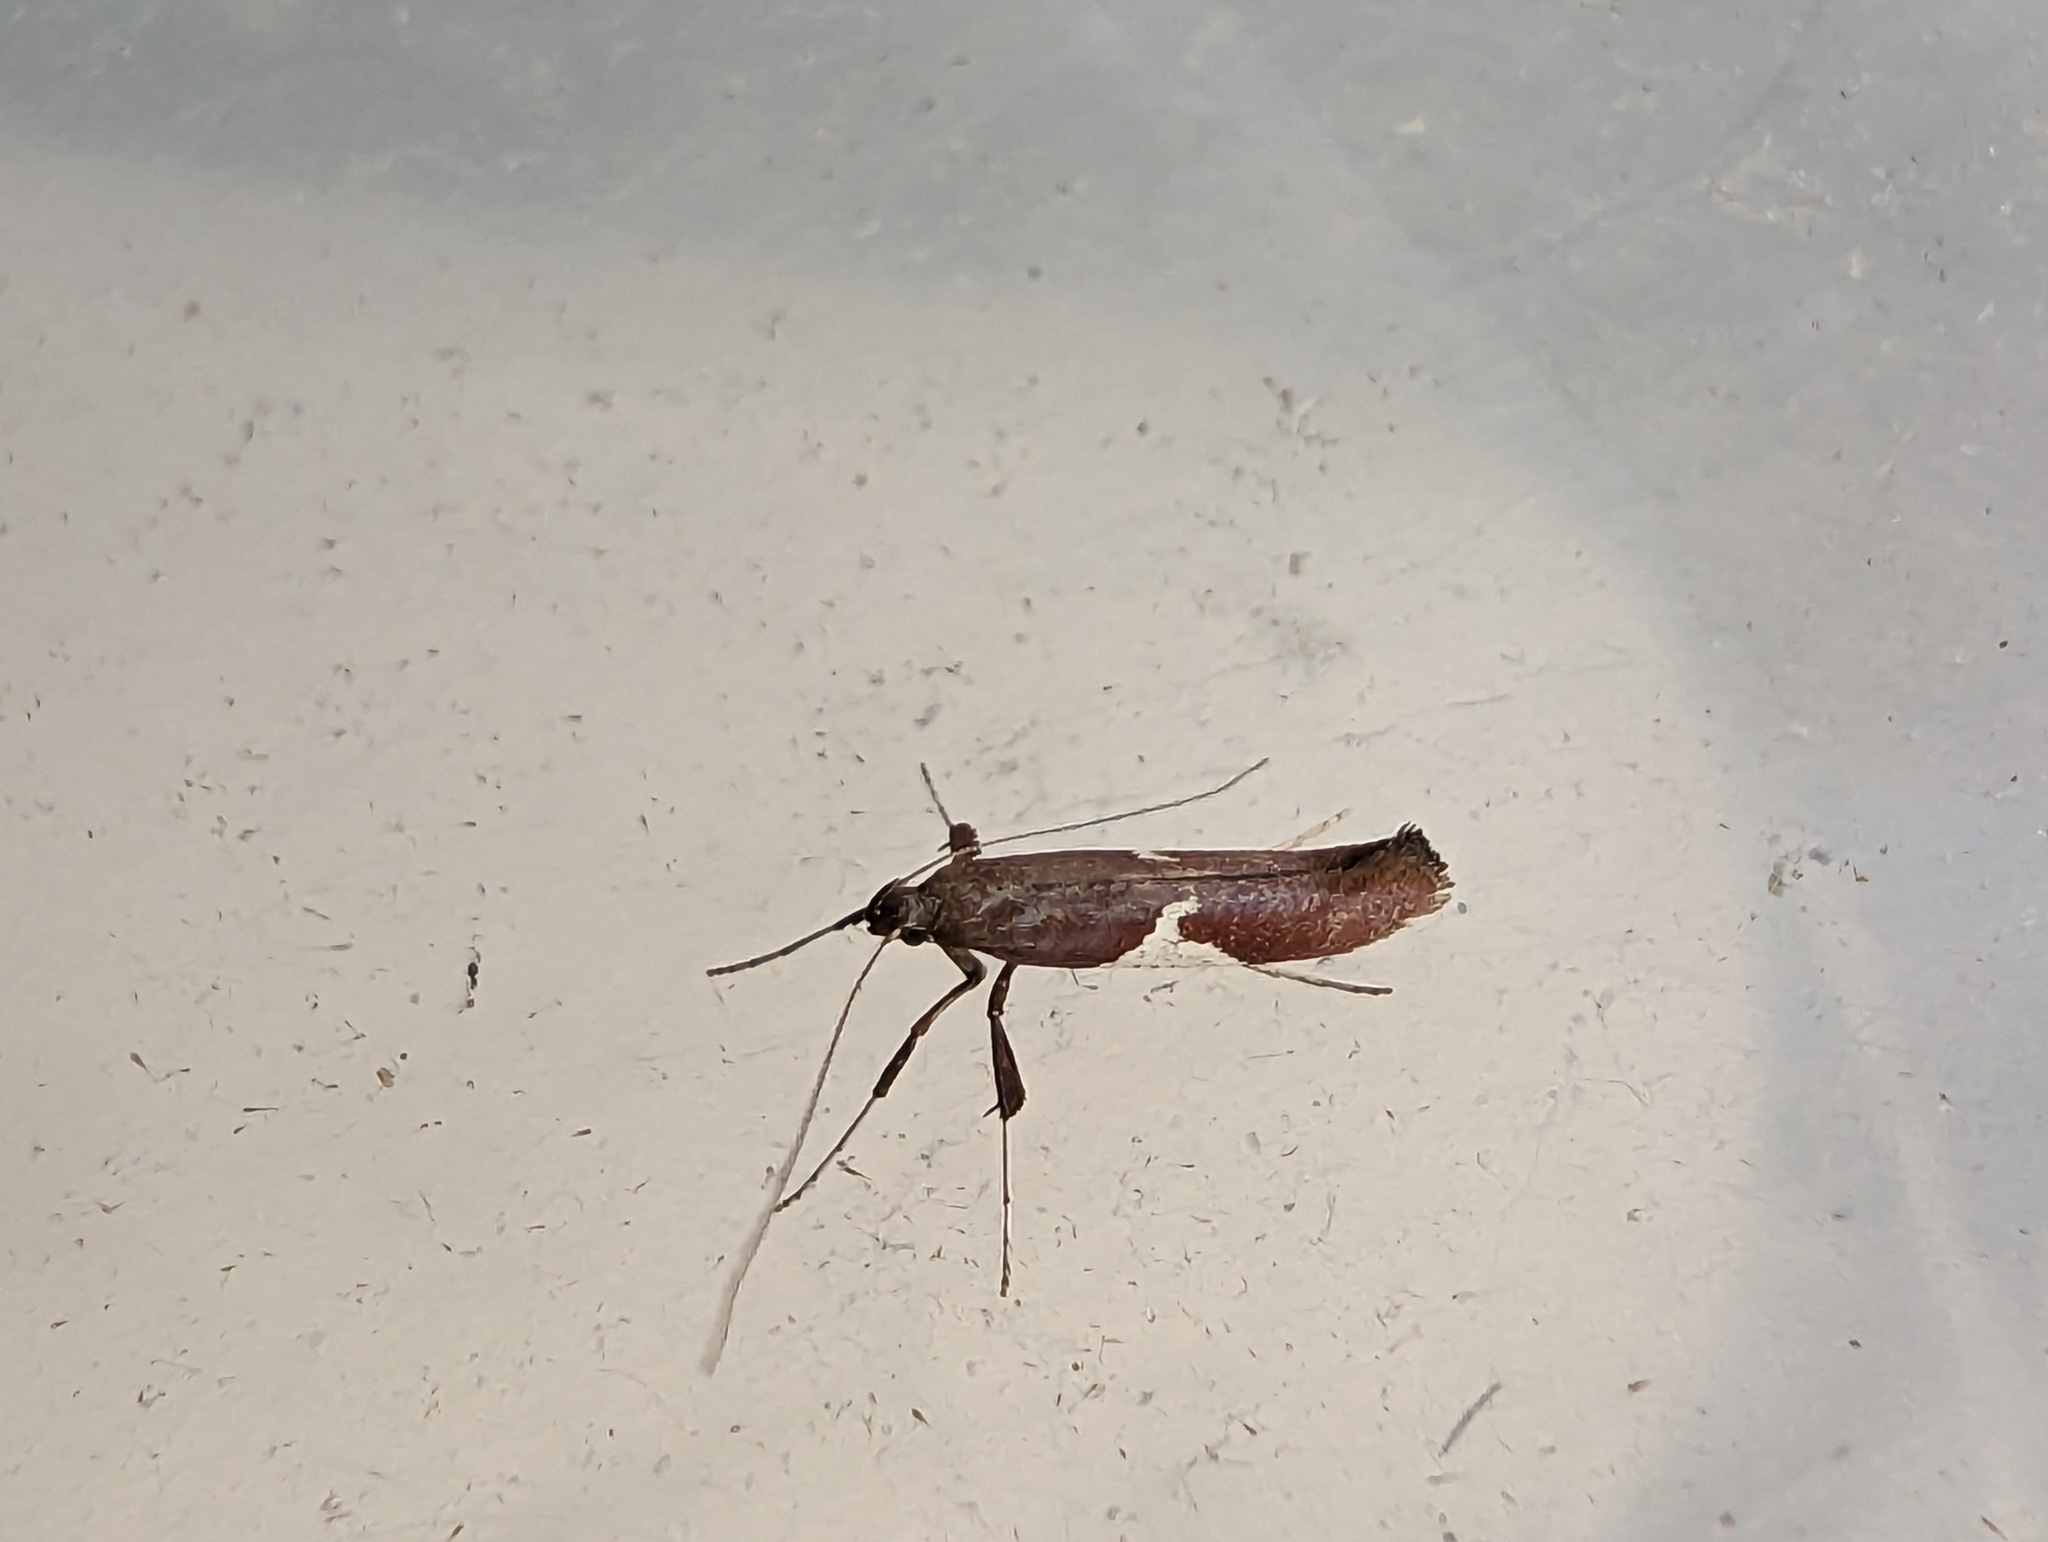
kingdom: Animalia
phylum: Arthropoda
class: Insecta
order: Lepidoptera
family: Gracillariidae
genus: Caloptilia
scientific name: Caloptilia stigmatella
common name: White-triangle slender
